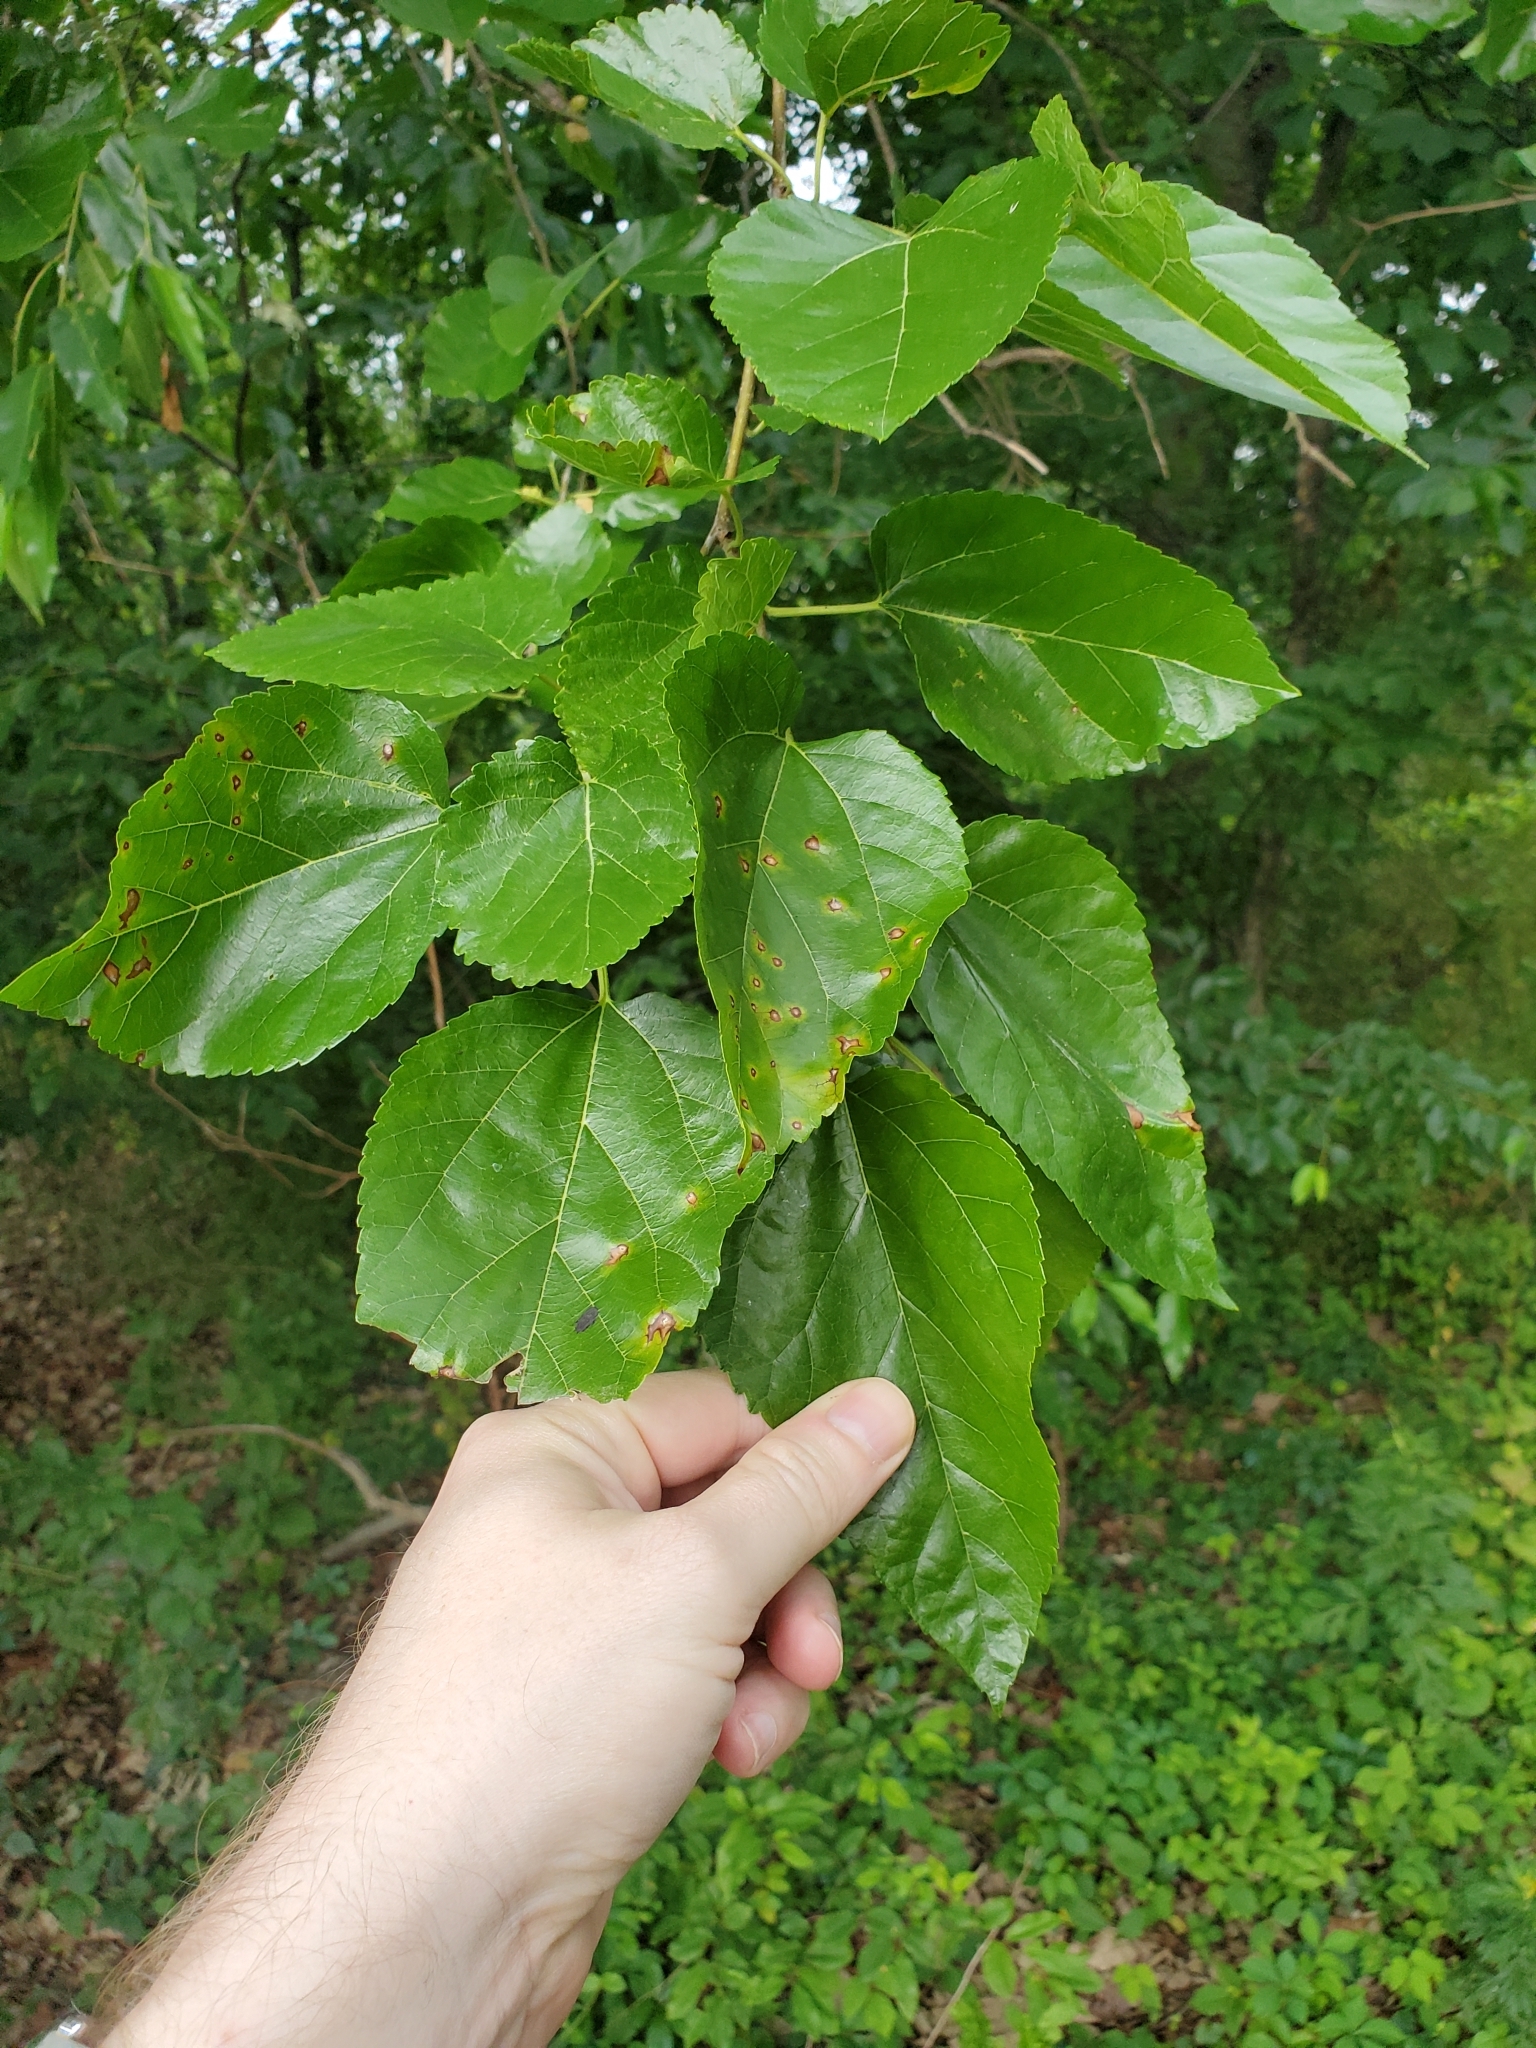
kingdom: Plantae
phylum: Tracheophyta
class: Magnoliopsida
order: Rosales
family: Moraceae
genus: Morus
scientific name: Morus alba
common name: White mulberry
